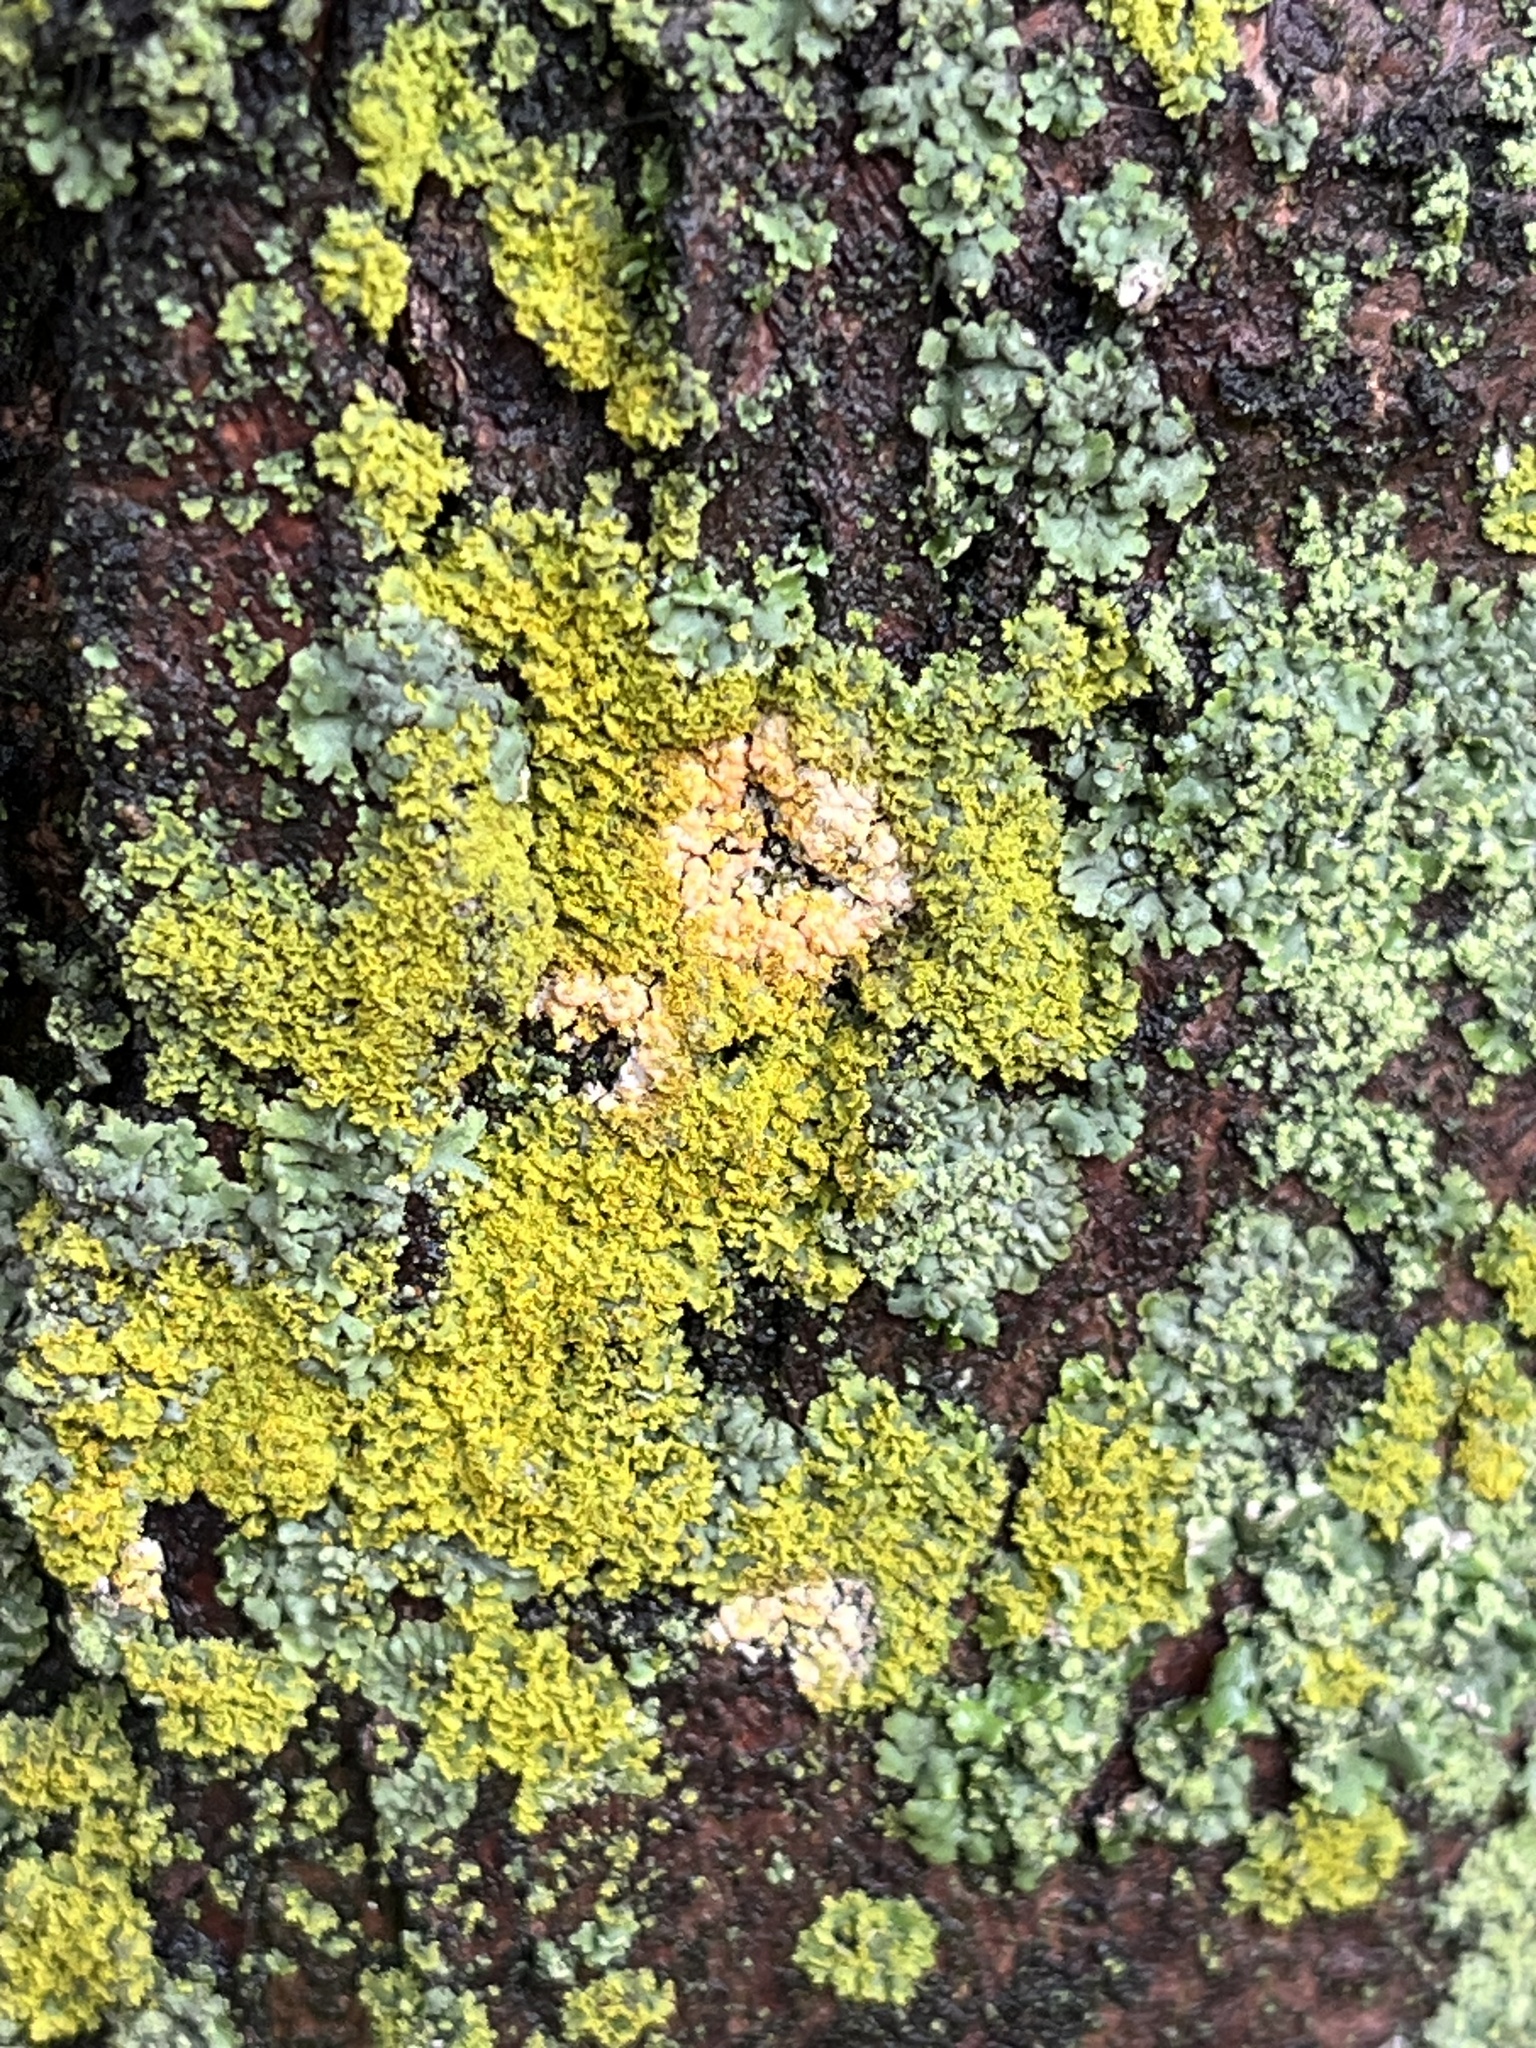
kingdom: Fungi
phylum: Ascomycota
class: Lecanoromycetes
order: Teloschistales
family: Teloschistaceae
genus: Xanthoria
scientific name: Xanthoria ulophyllodes
